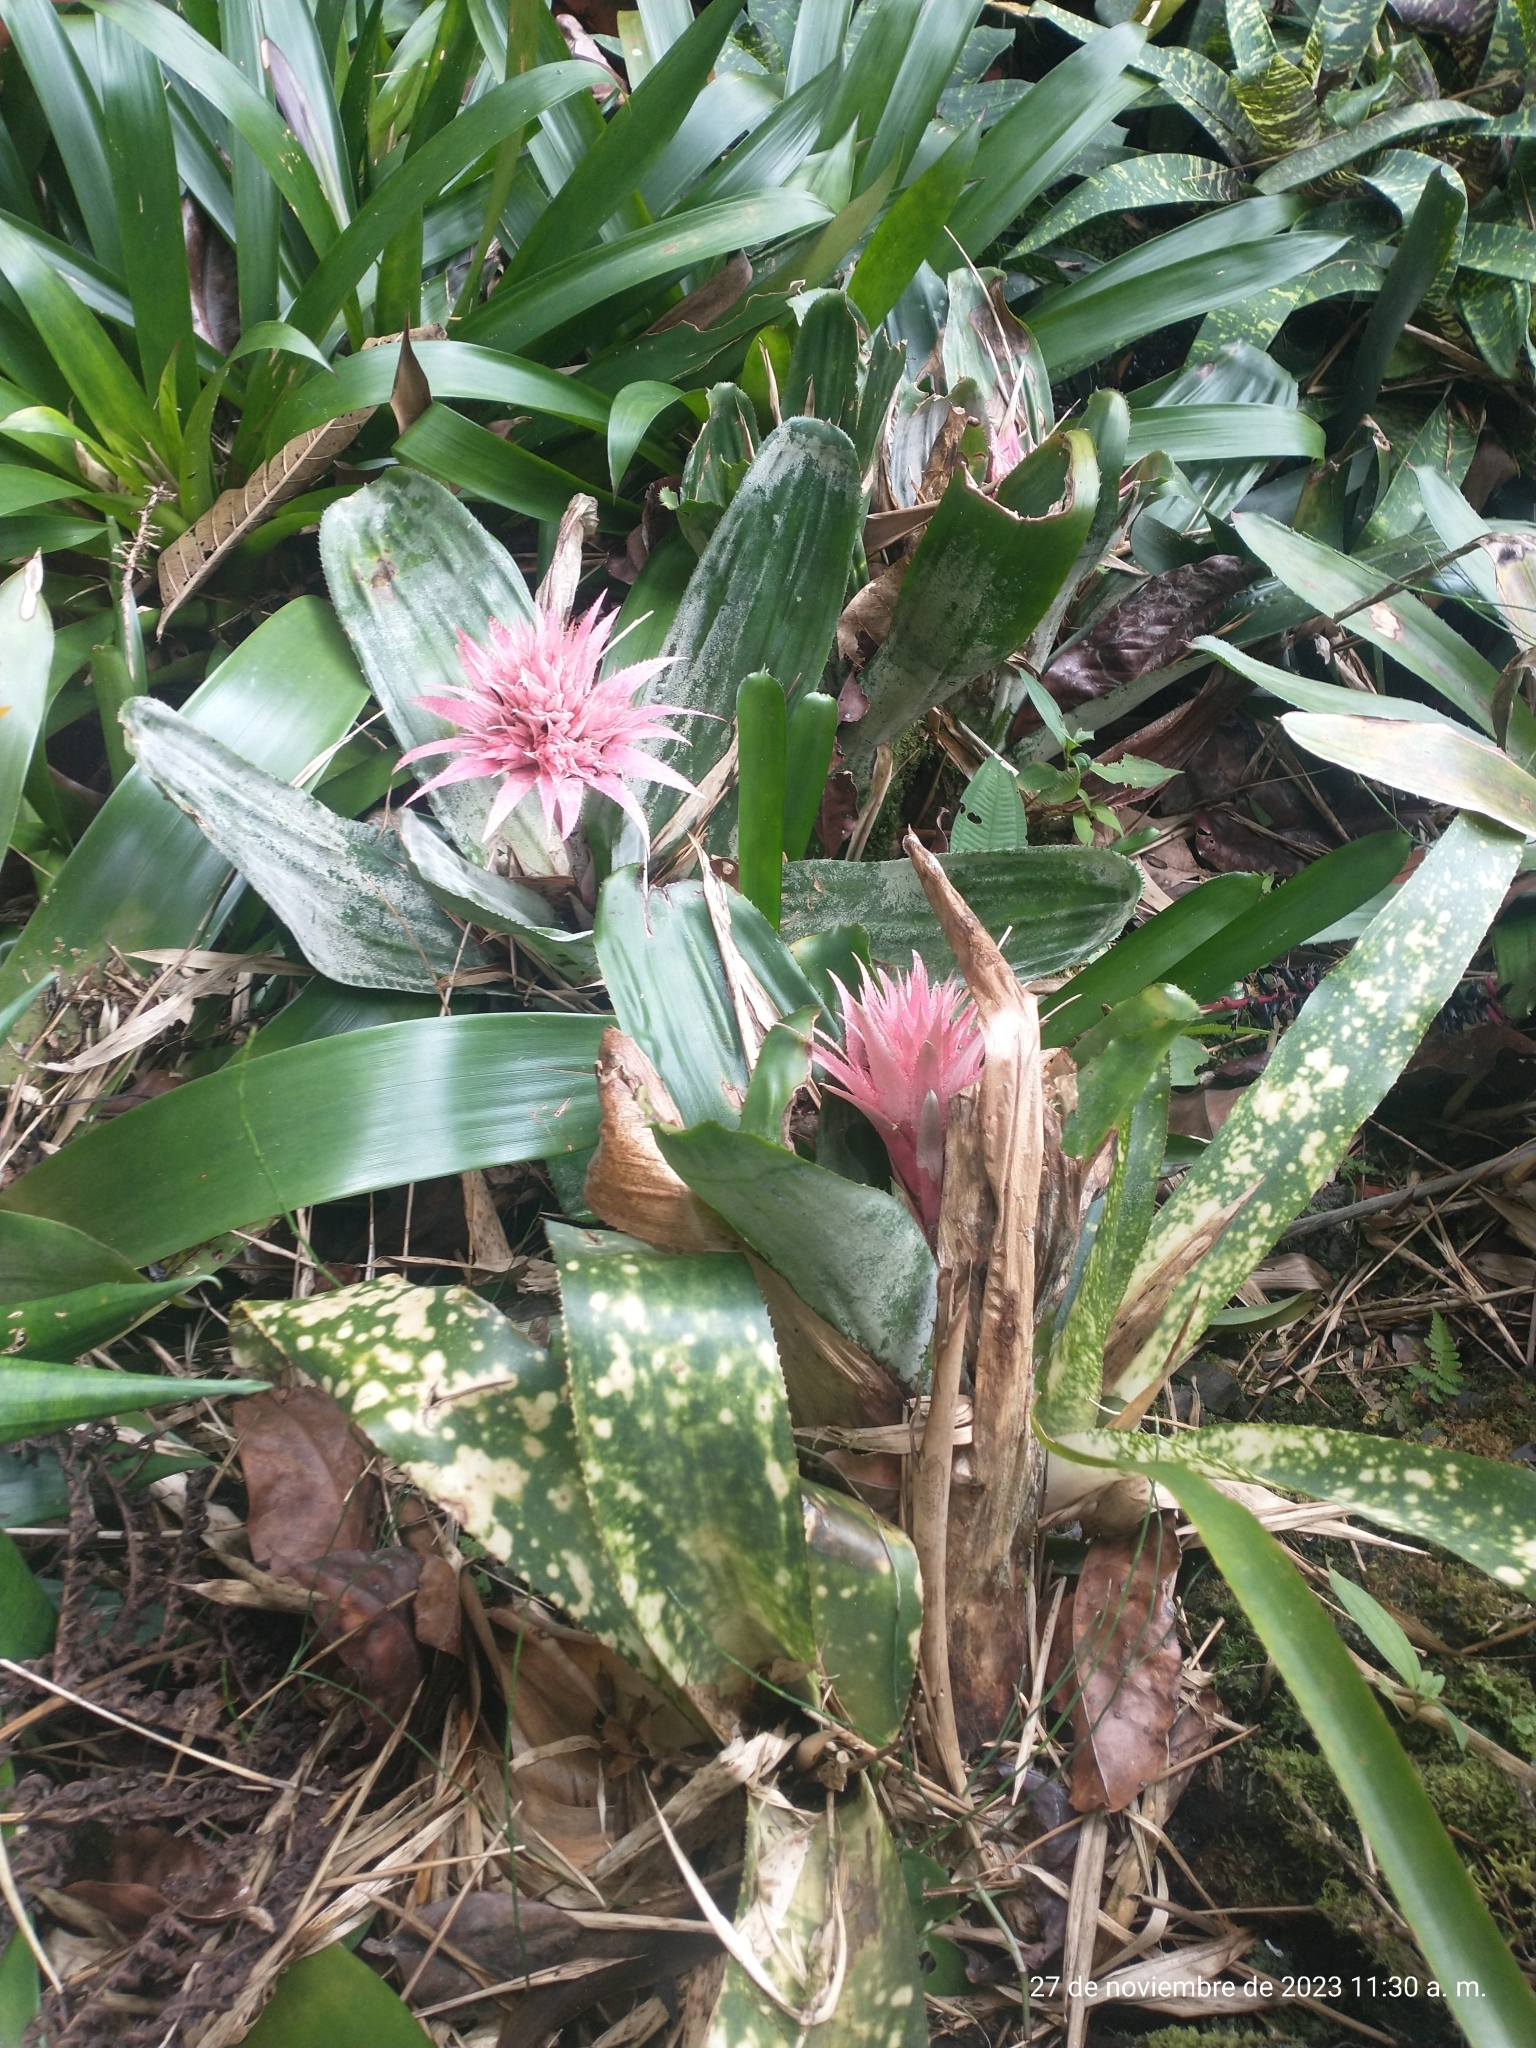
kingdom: Plantae
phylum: Tracheophyta
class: Liliopsida
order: Poales
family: Bromeliaceae
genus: Aechmea
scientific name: Aechmea fasciata
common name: Urnplant
